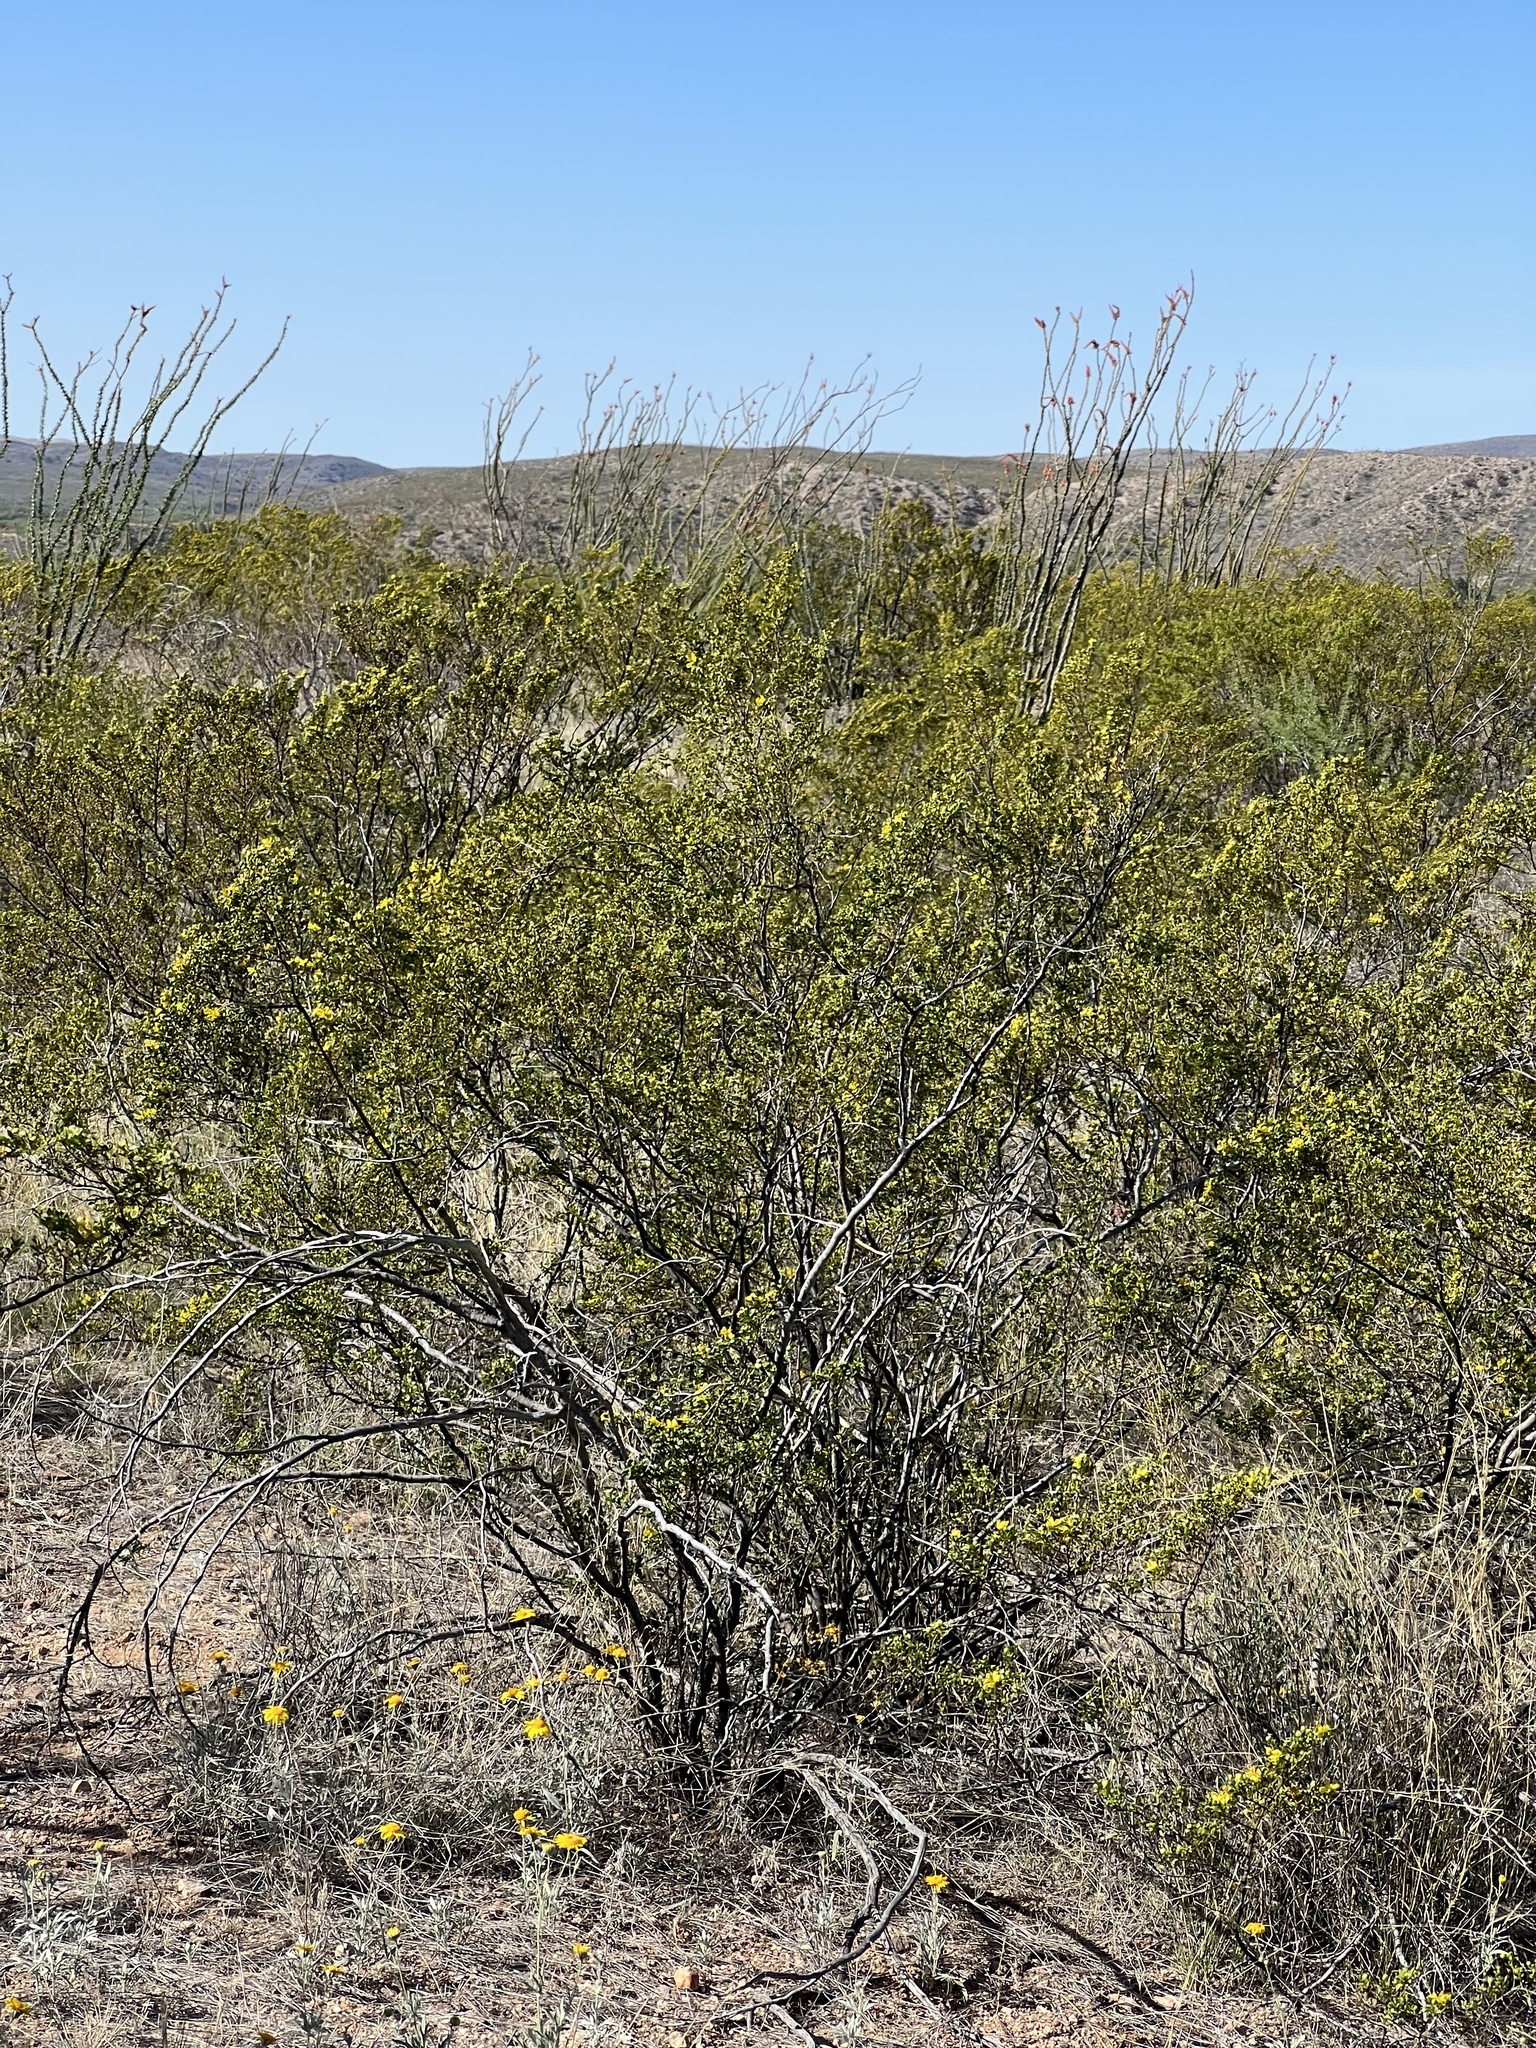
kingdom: Plantae
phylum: Tracheophyta
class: Magnoliopsida
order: Zygophyllales
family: Zygophyllaceae
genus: Larrea
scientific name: Larrea tridentata
